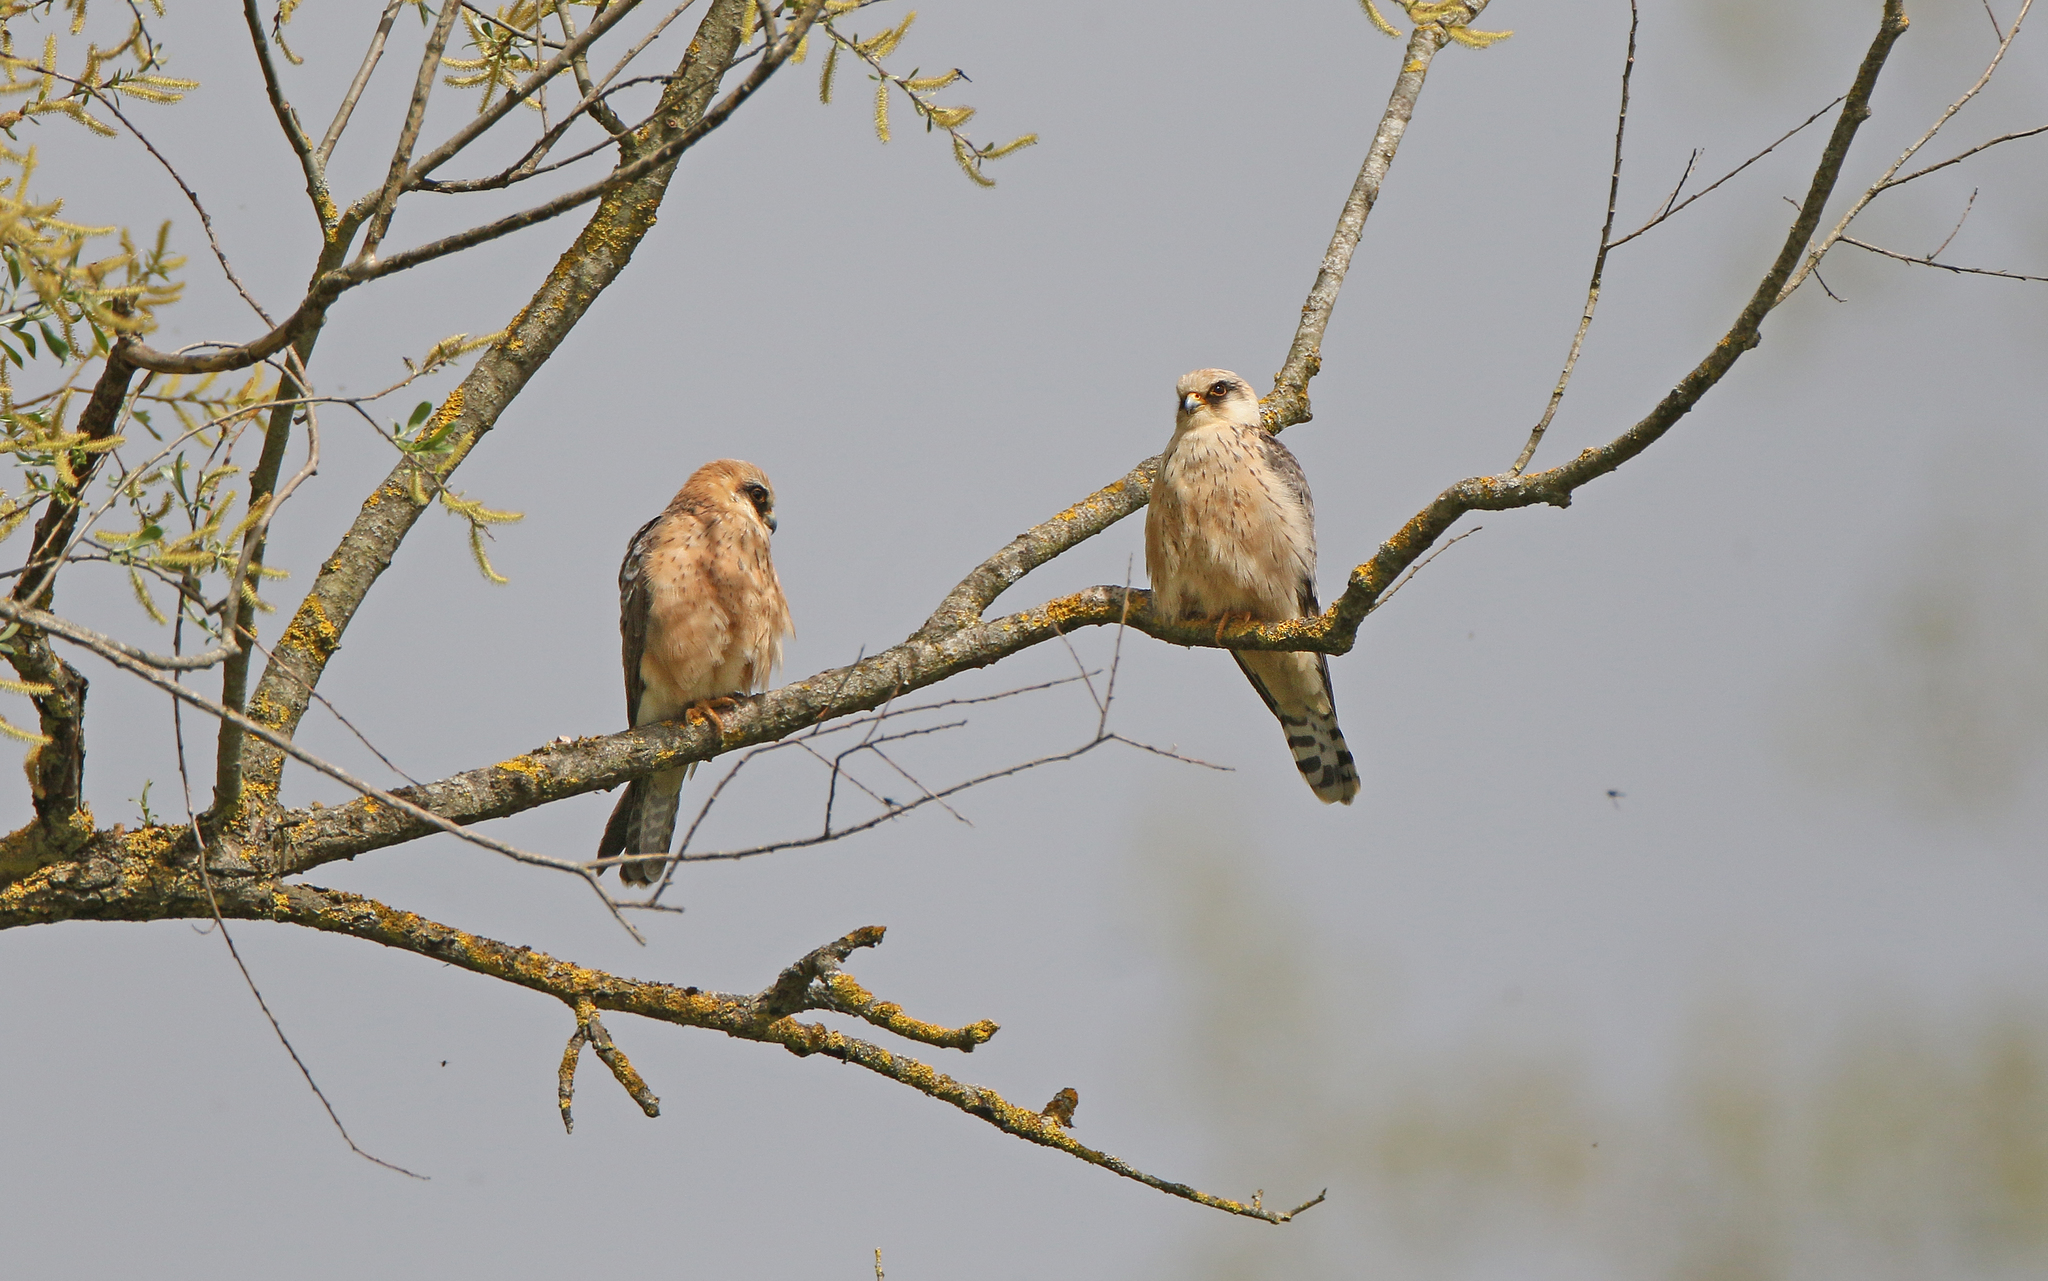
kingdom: Animalia
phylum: Chordata
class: Aves
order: Falconiformes
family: Falconidae
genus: Falco
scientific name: Falco vespertinus
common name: Red-footed falcon
